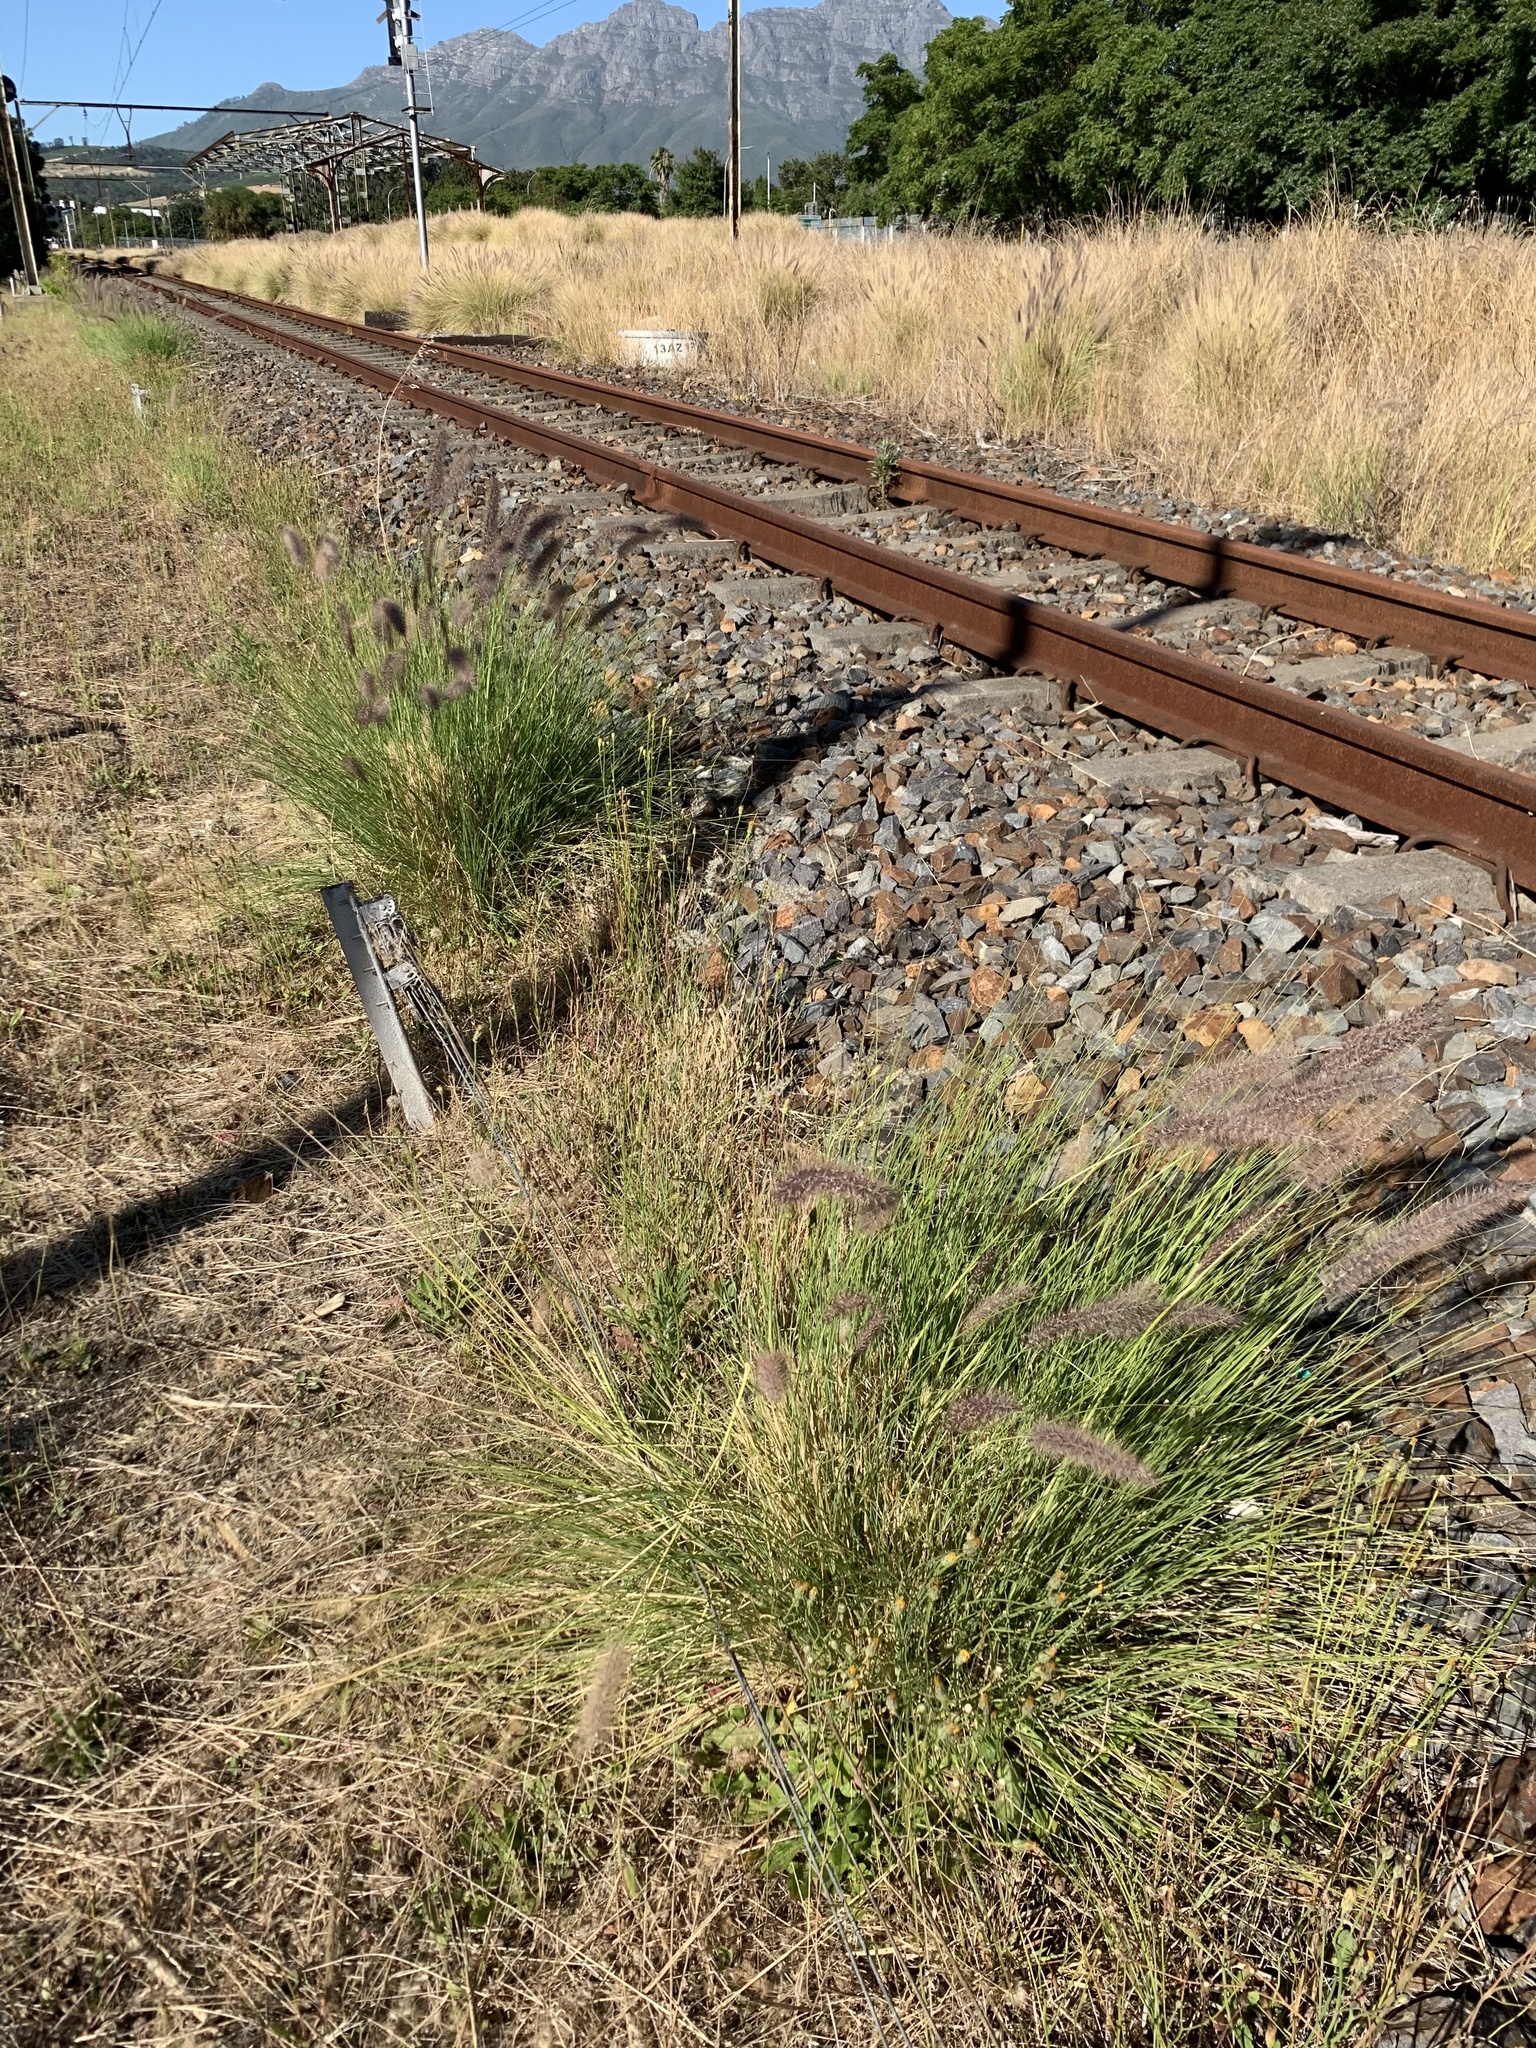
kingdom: Plantae
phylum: Tracheophyta
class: Liliopsida
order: Poales
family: Poaceae
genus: Cenchrus
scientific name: Cenchrus setaceus
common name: Crimson fountaingrass
